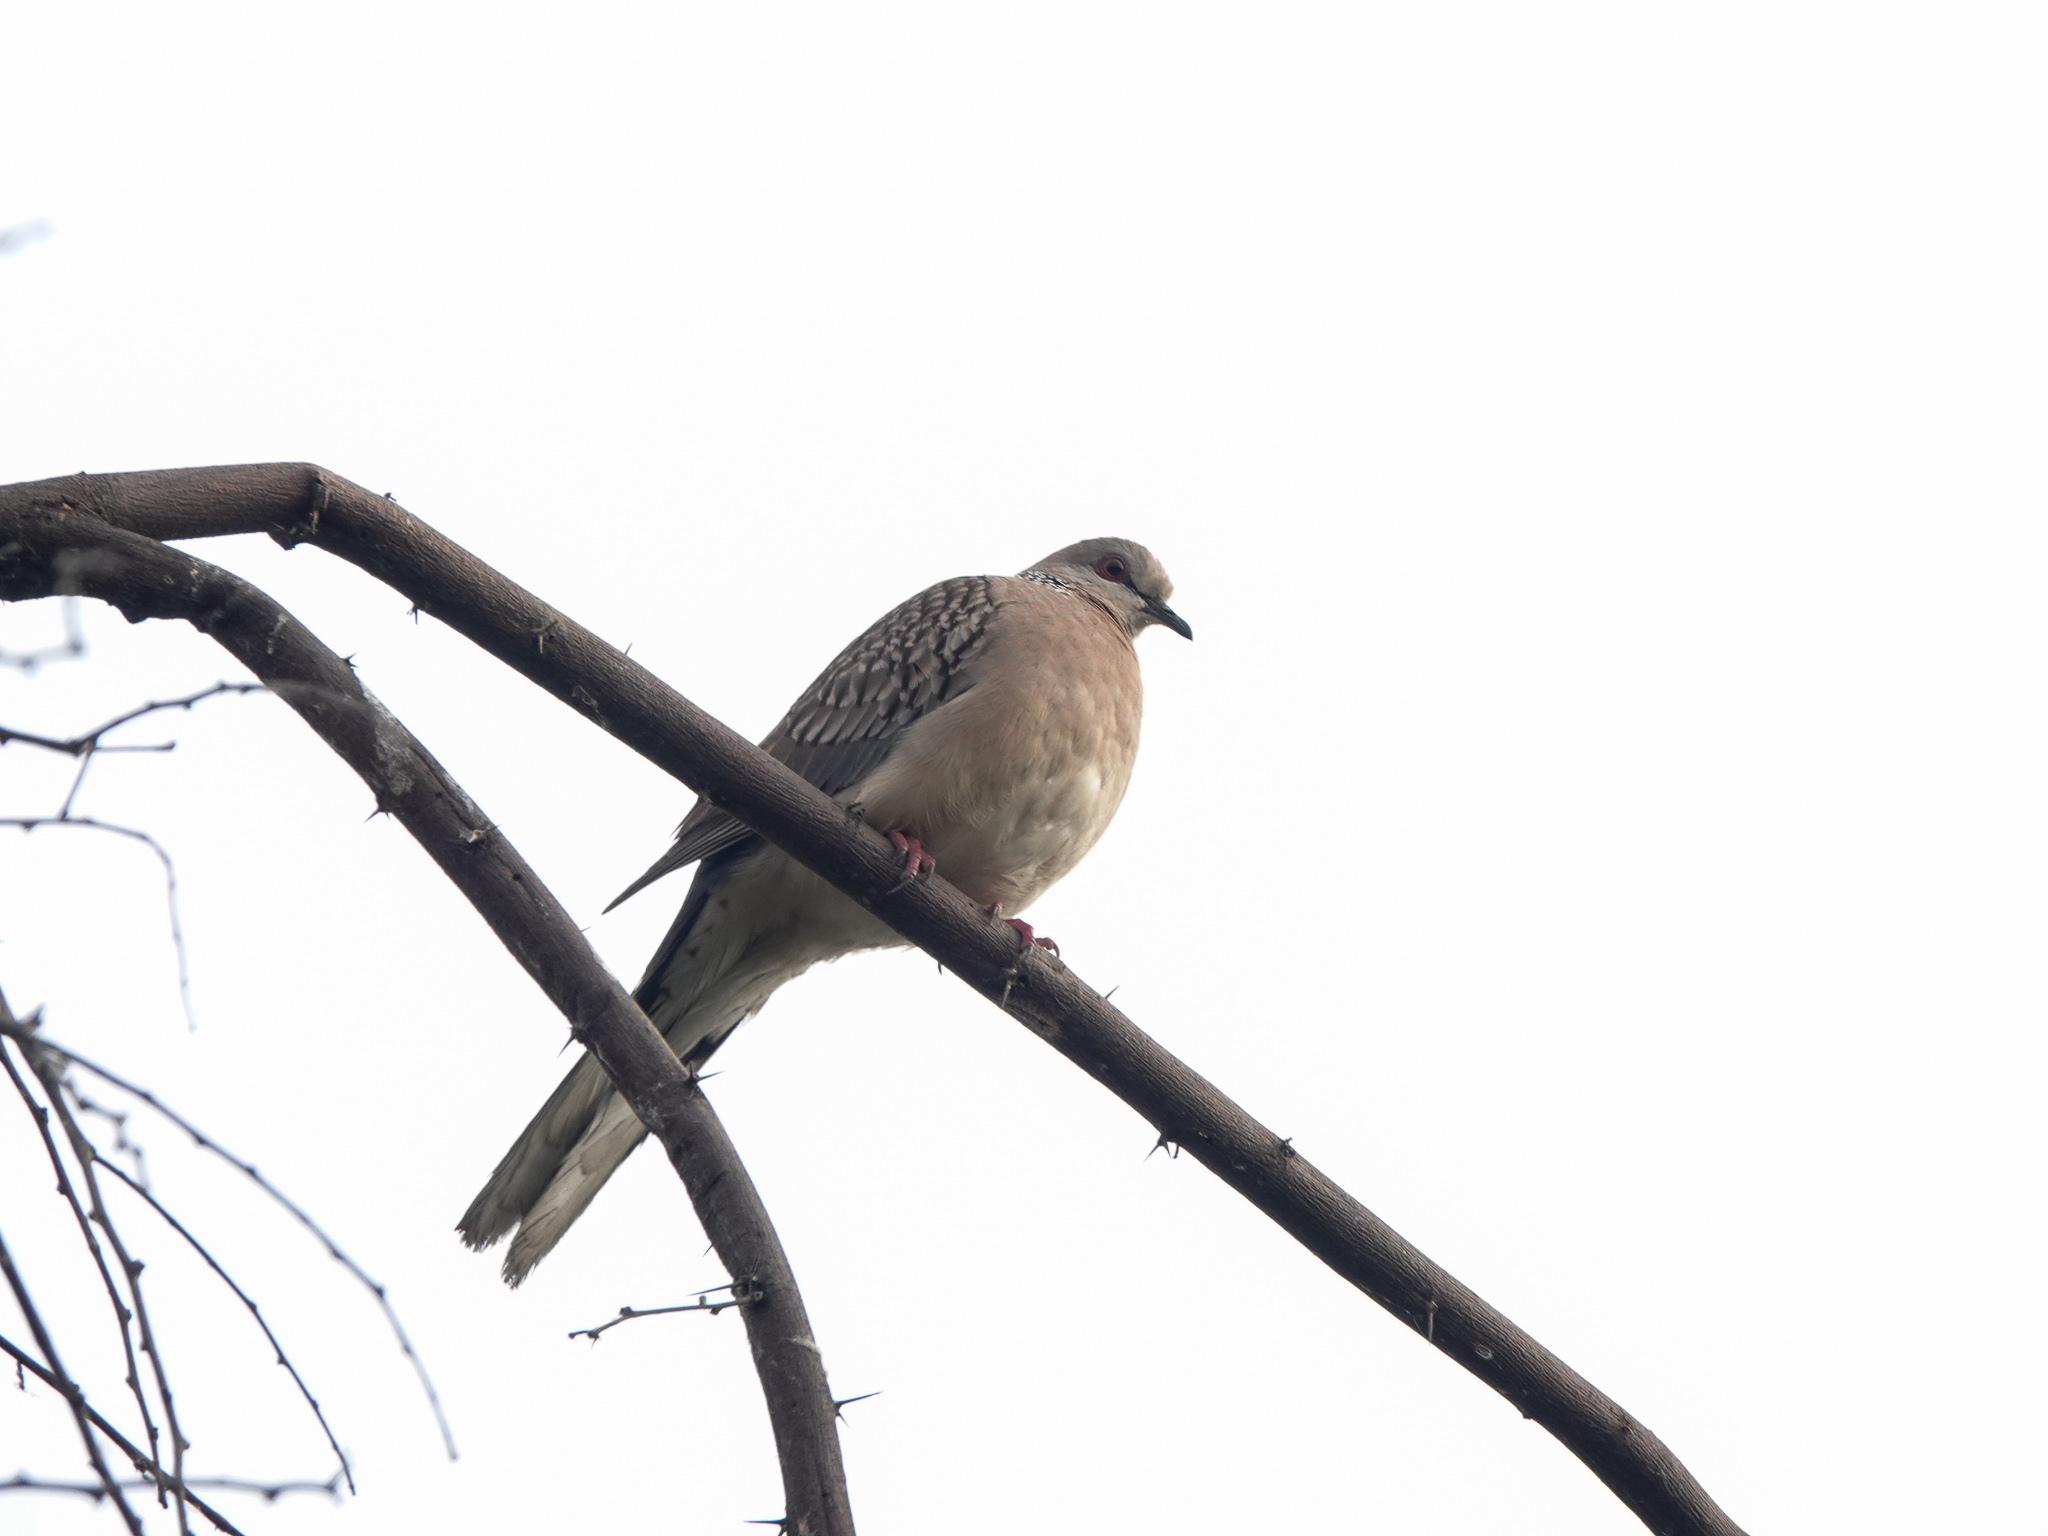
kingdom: Animalia
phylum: Chordata
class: Aves
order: Columbiformes
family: Columbidae
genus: Spilopelia
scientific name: Spilopelia chinensis
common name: Spotted dove
